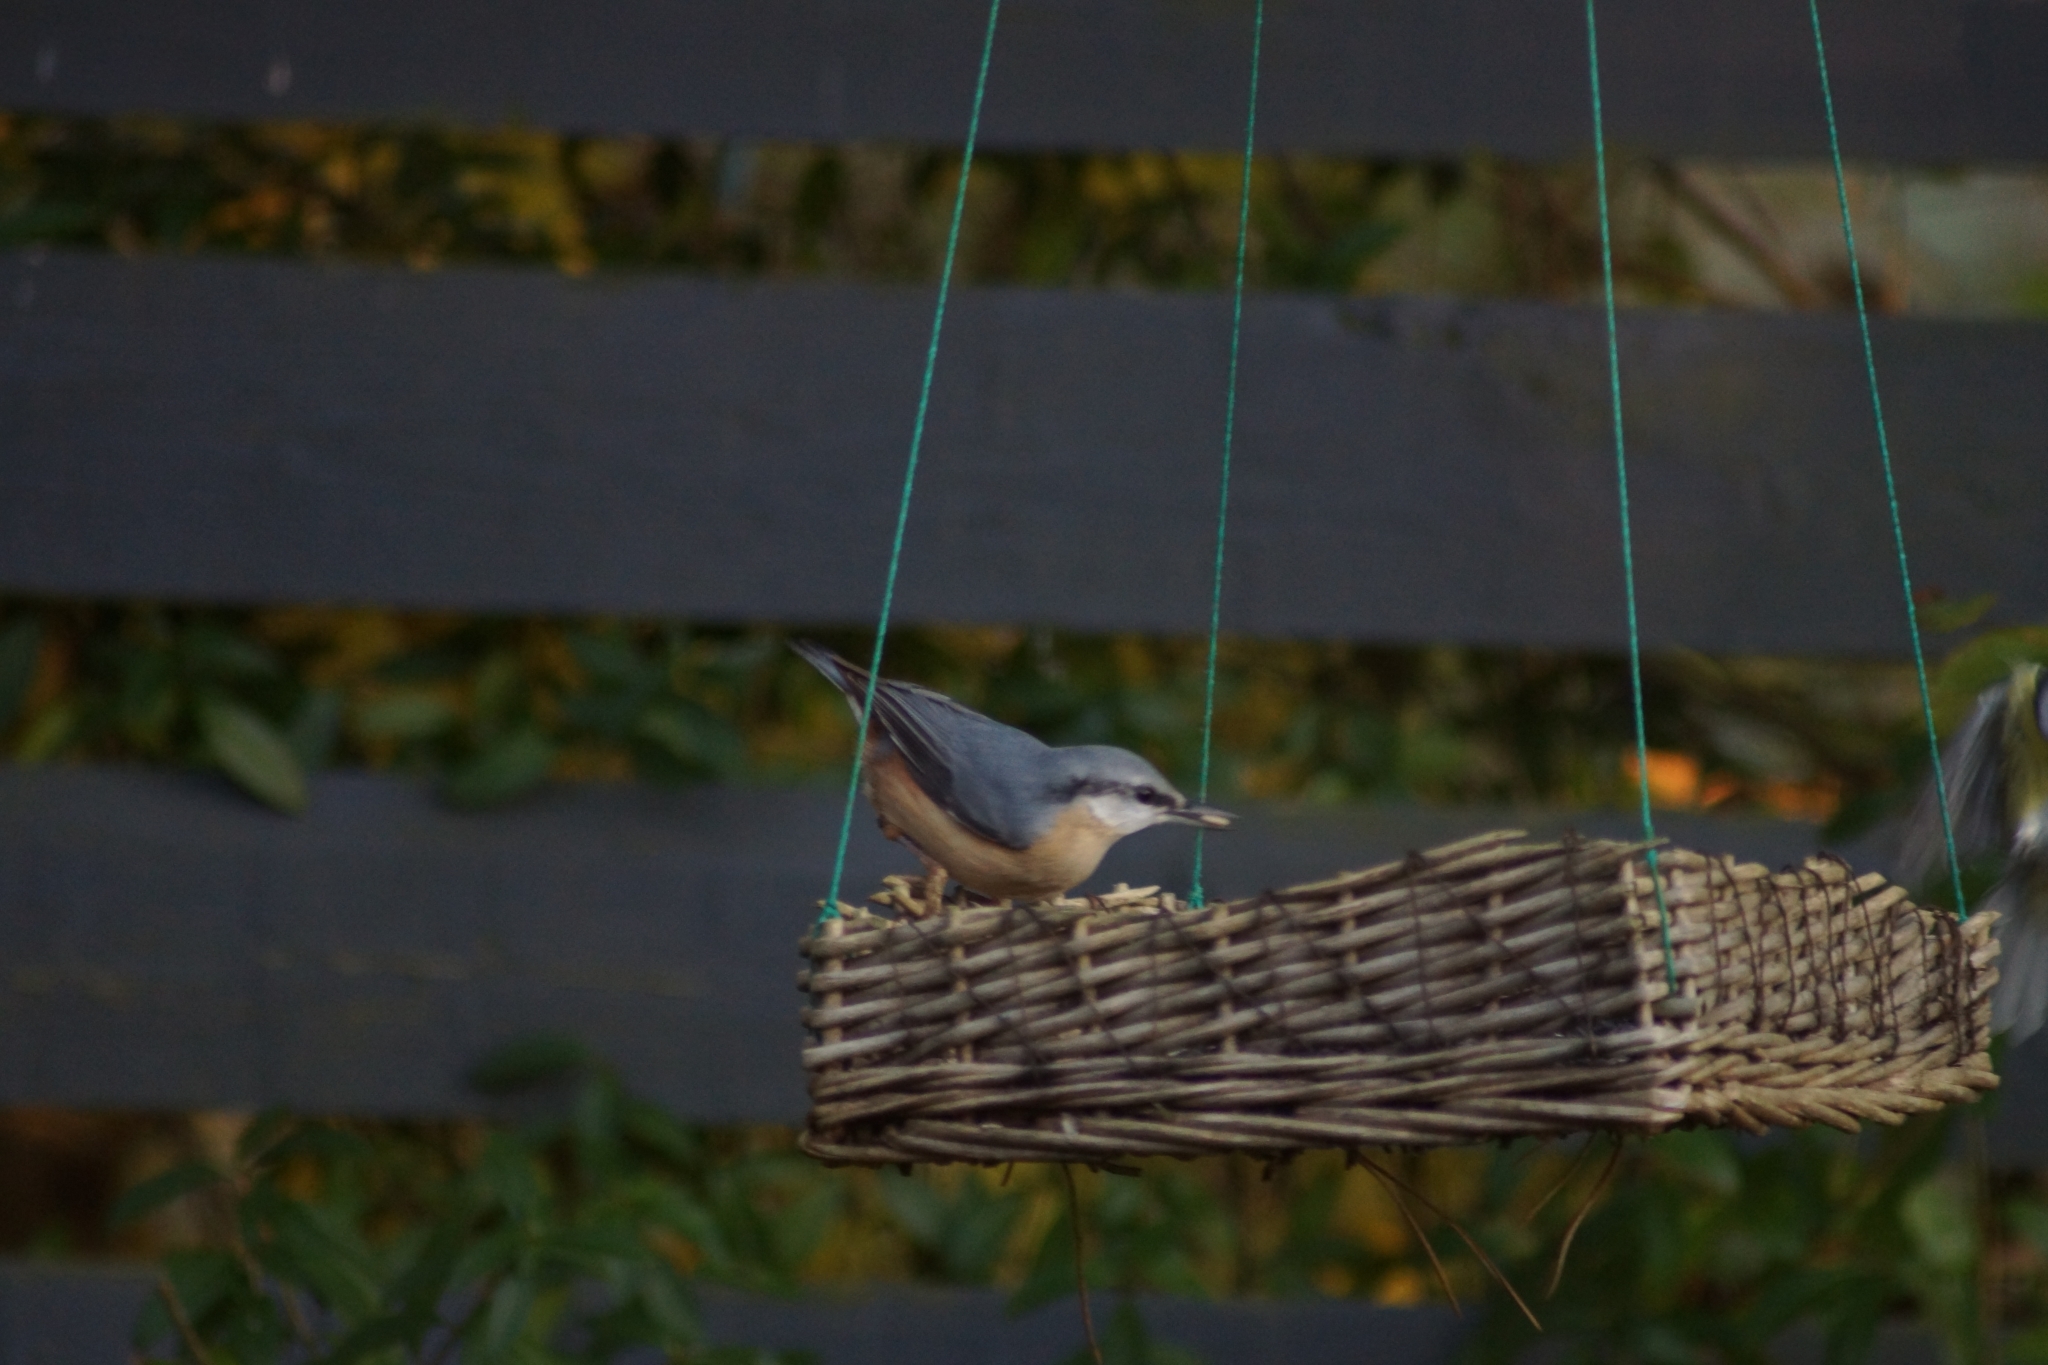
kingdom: Animalia
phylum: Chordata
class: Aves
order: Passeriformes
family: Sittidae
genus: Sitta
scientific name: Sitta europaea
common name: Eurasian nuthatch
